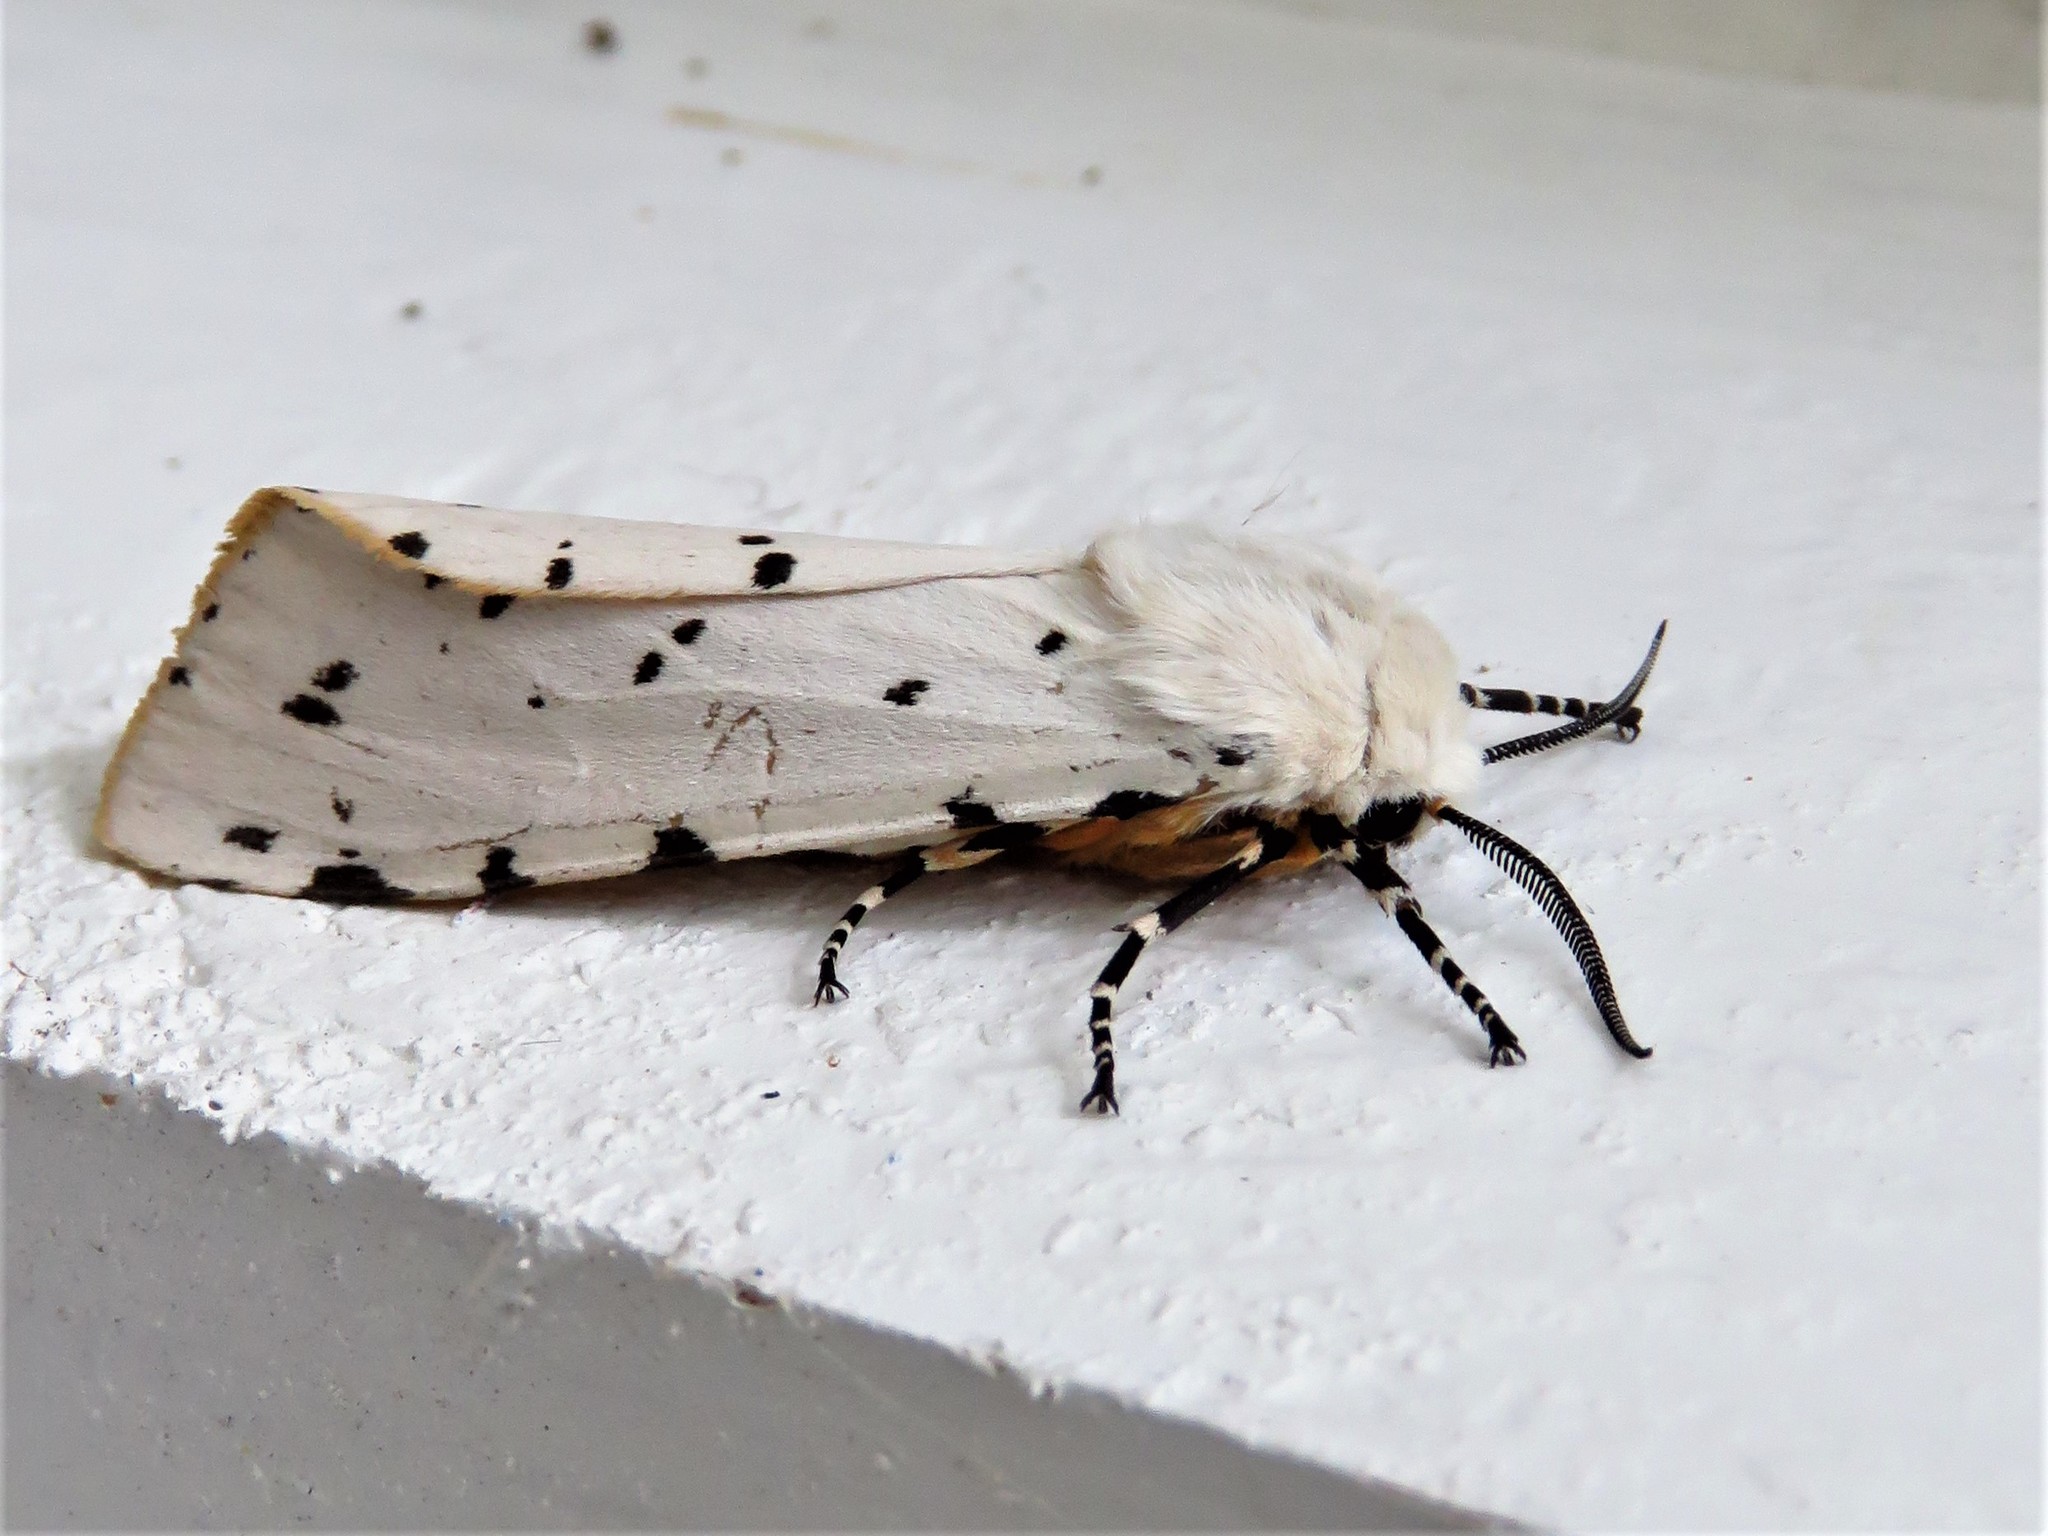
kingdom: Animalia
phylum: Arthropoda
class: Insecta
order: Lepidoptera
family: Erebidae
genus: Estigmene
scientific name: Estigmene acrea
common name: Salt marsh moth
